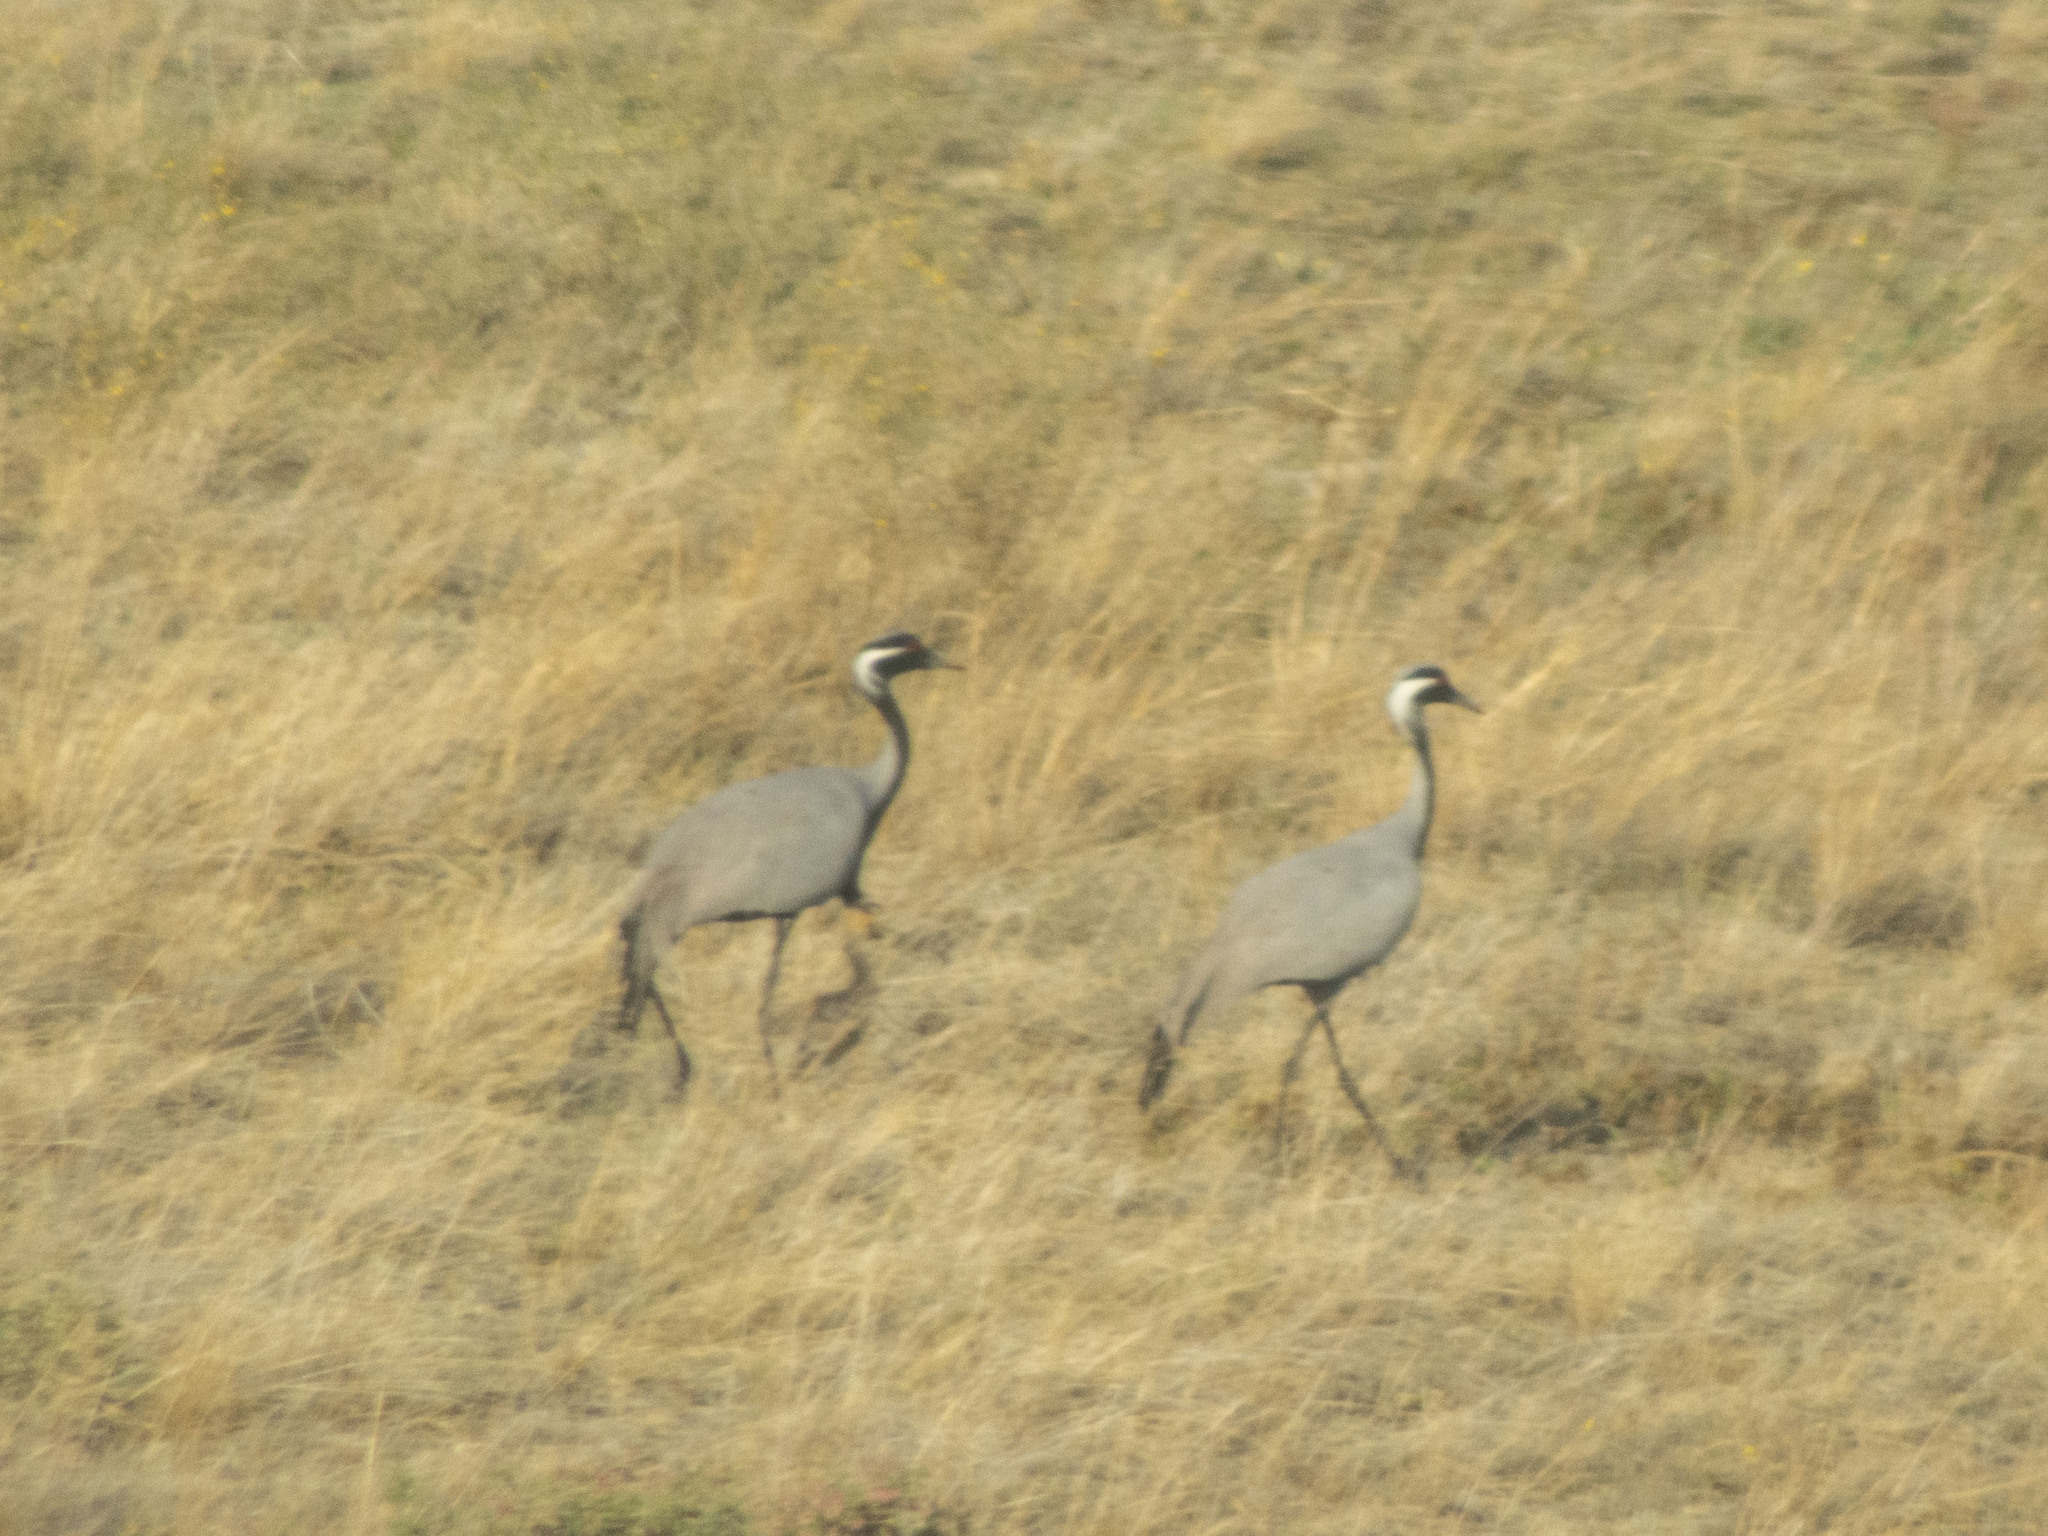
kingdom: Animalia
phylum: Chordata
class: Aves
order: Gruiformes
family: Gruidae
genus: Anthropoides
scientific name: Anthropoides virgo
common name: Demoiselle crane
